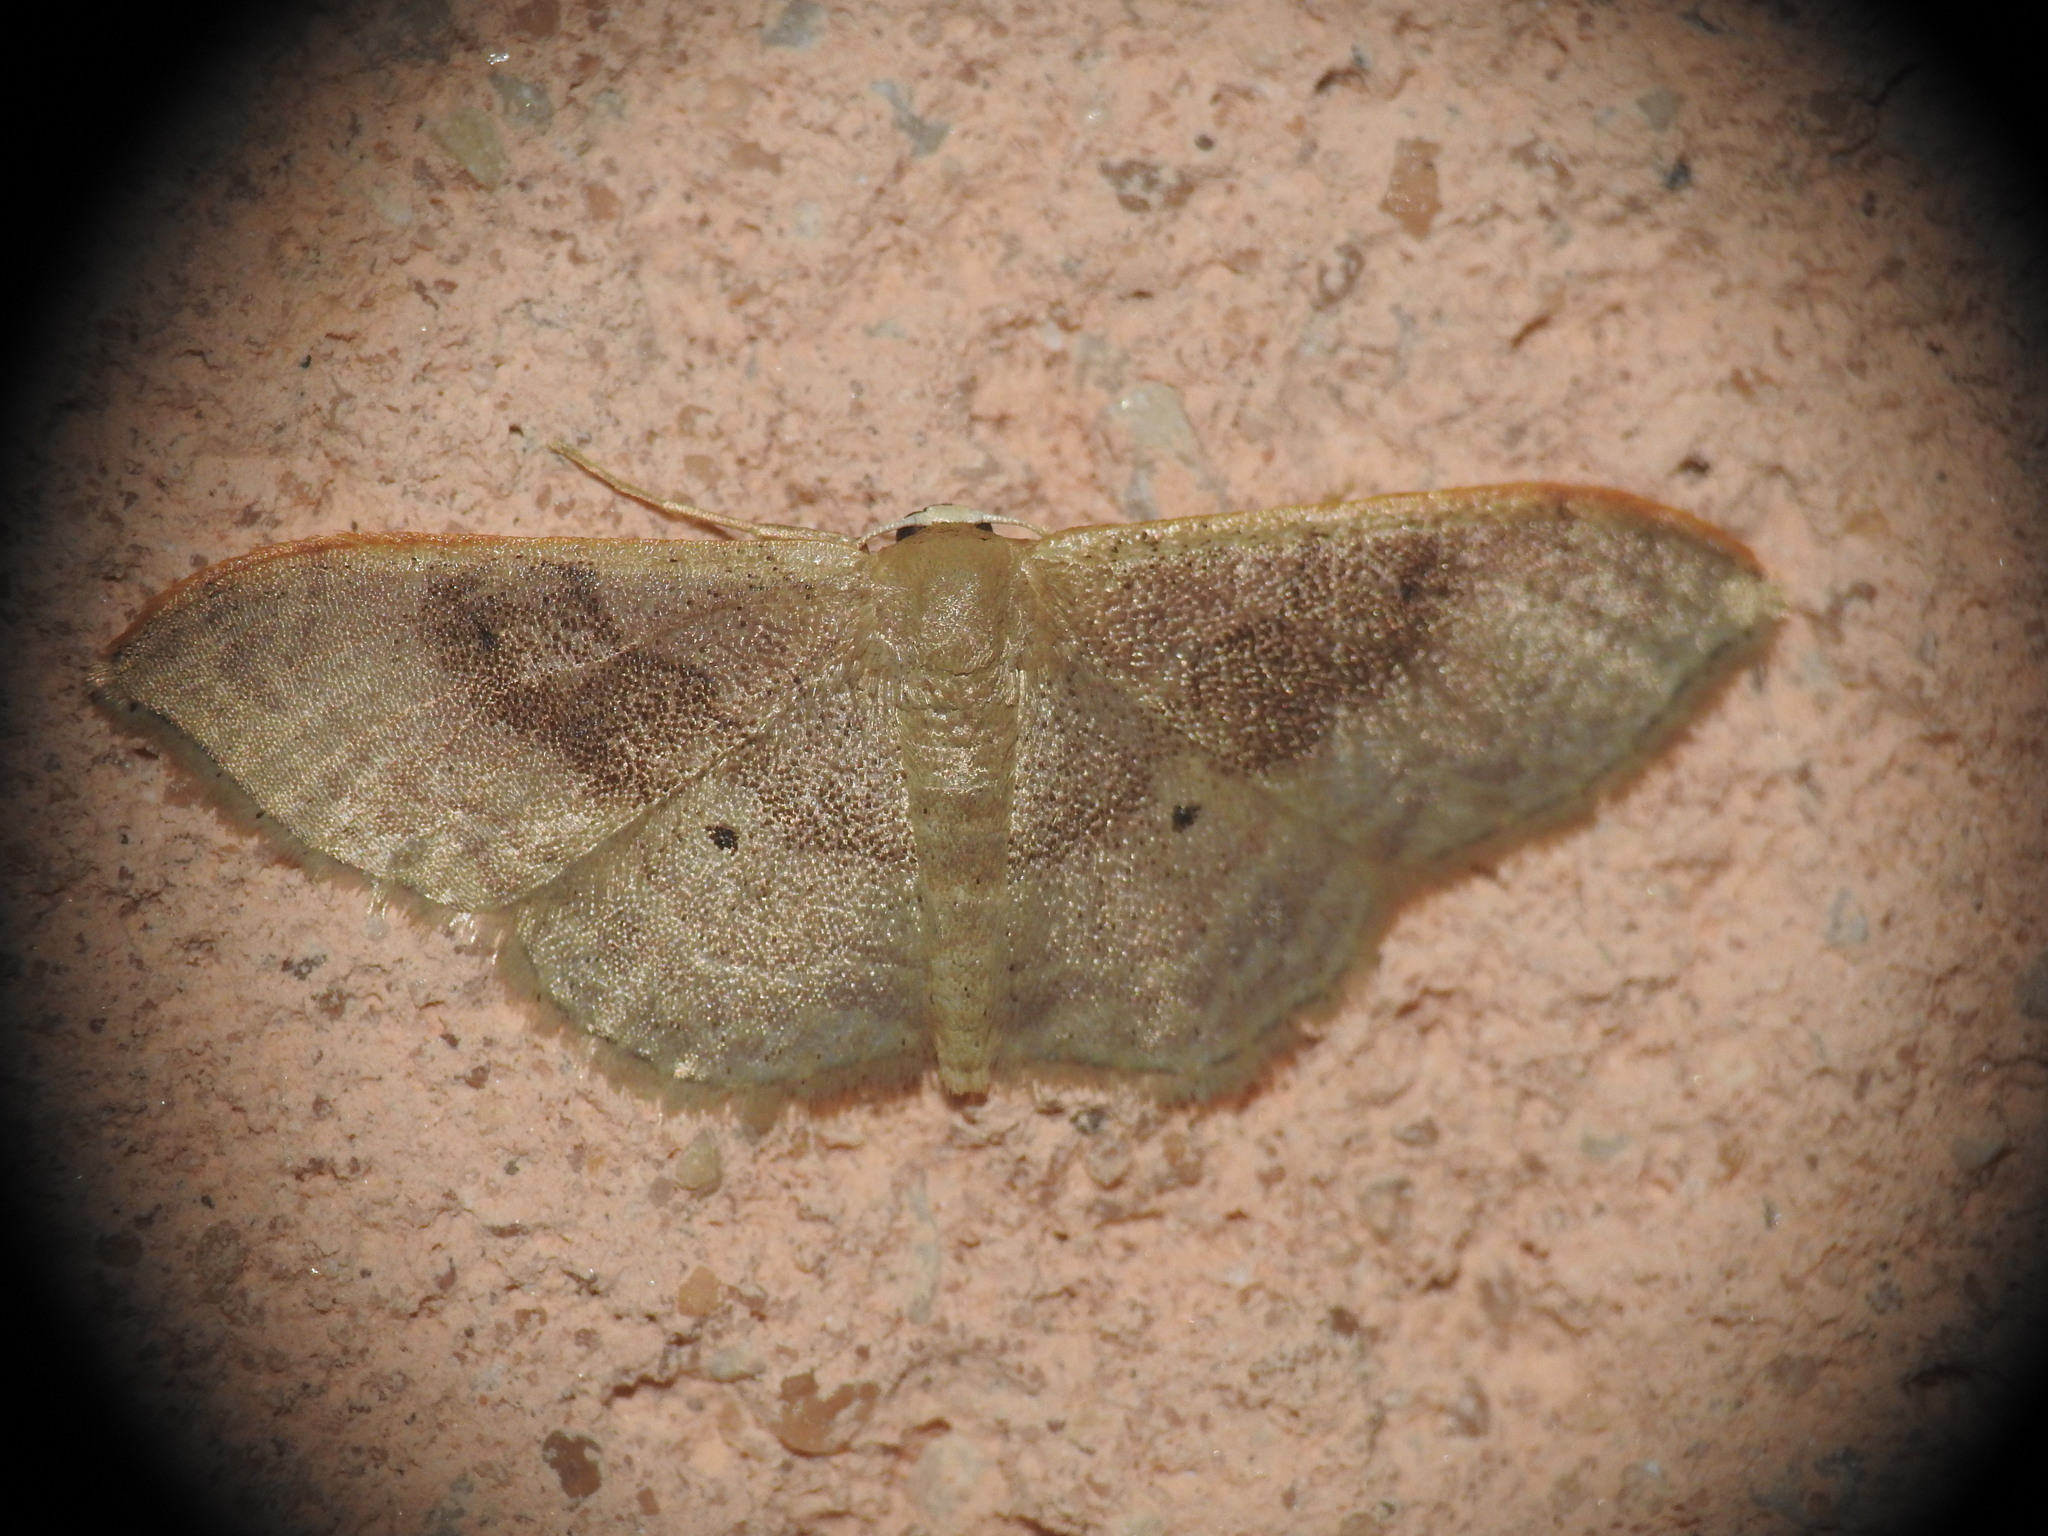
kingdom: Animalia
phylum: Arthropoda
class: Insecta
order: Lepidoptera
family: Geometridae
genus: Idaea
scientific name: Idaea degeneraria
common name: Portland ribbon wave
